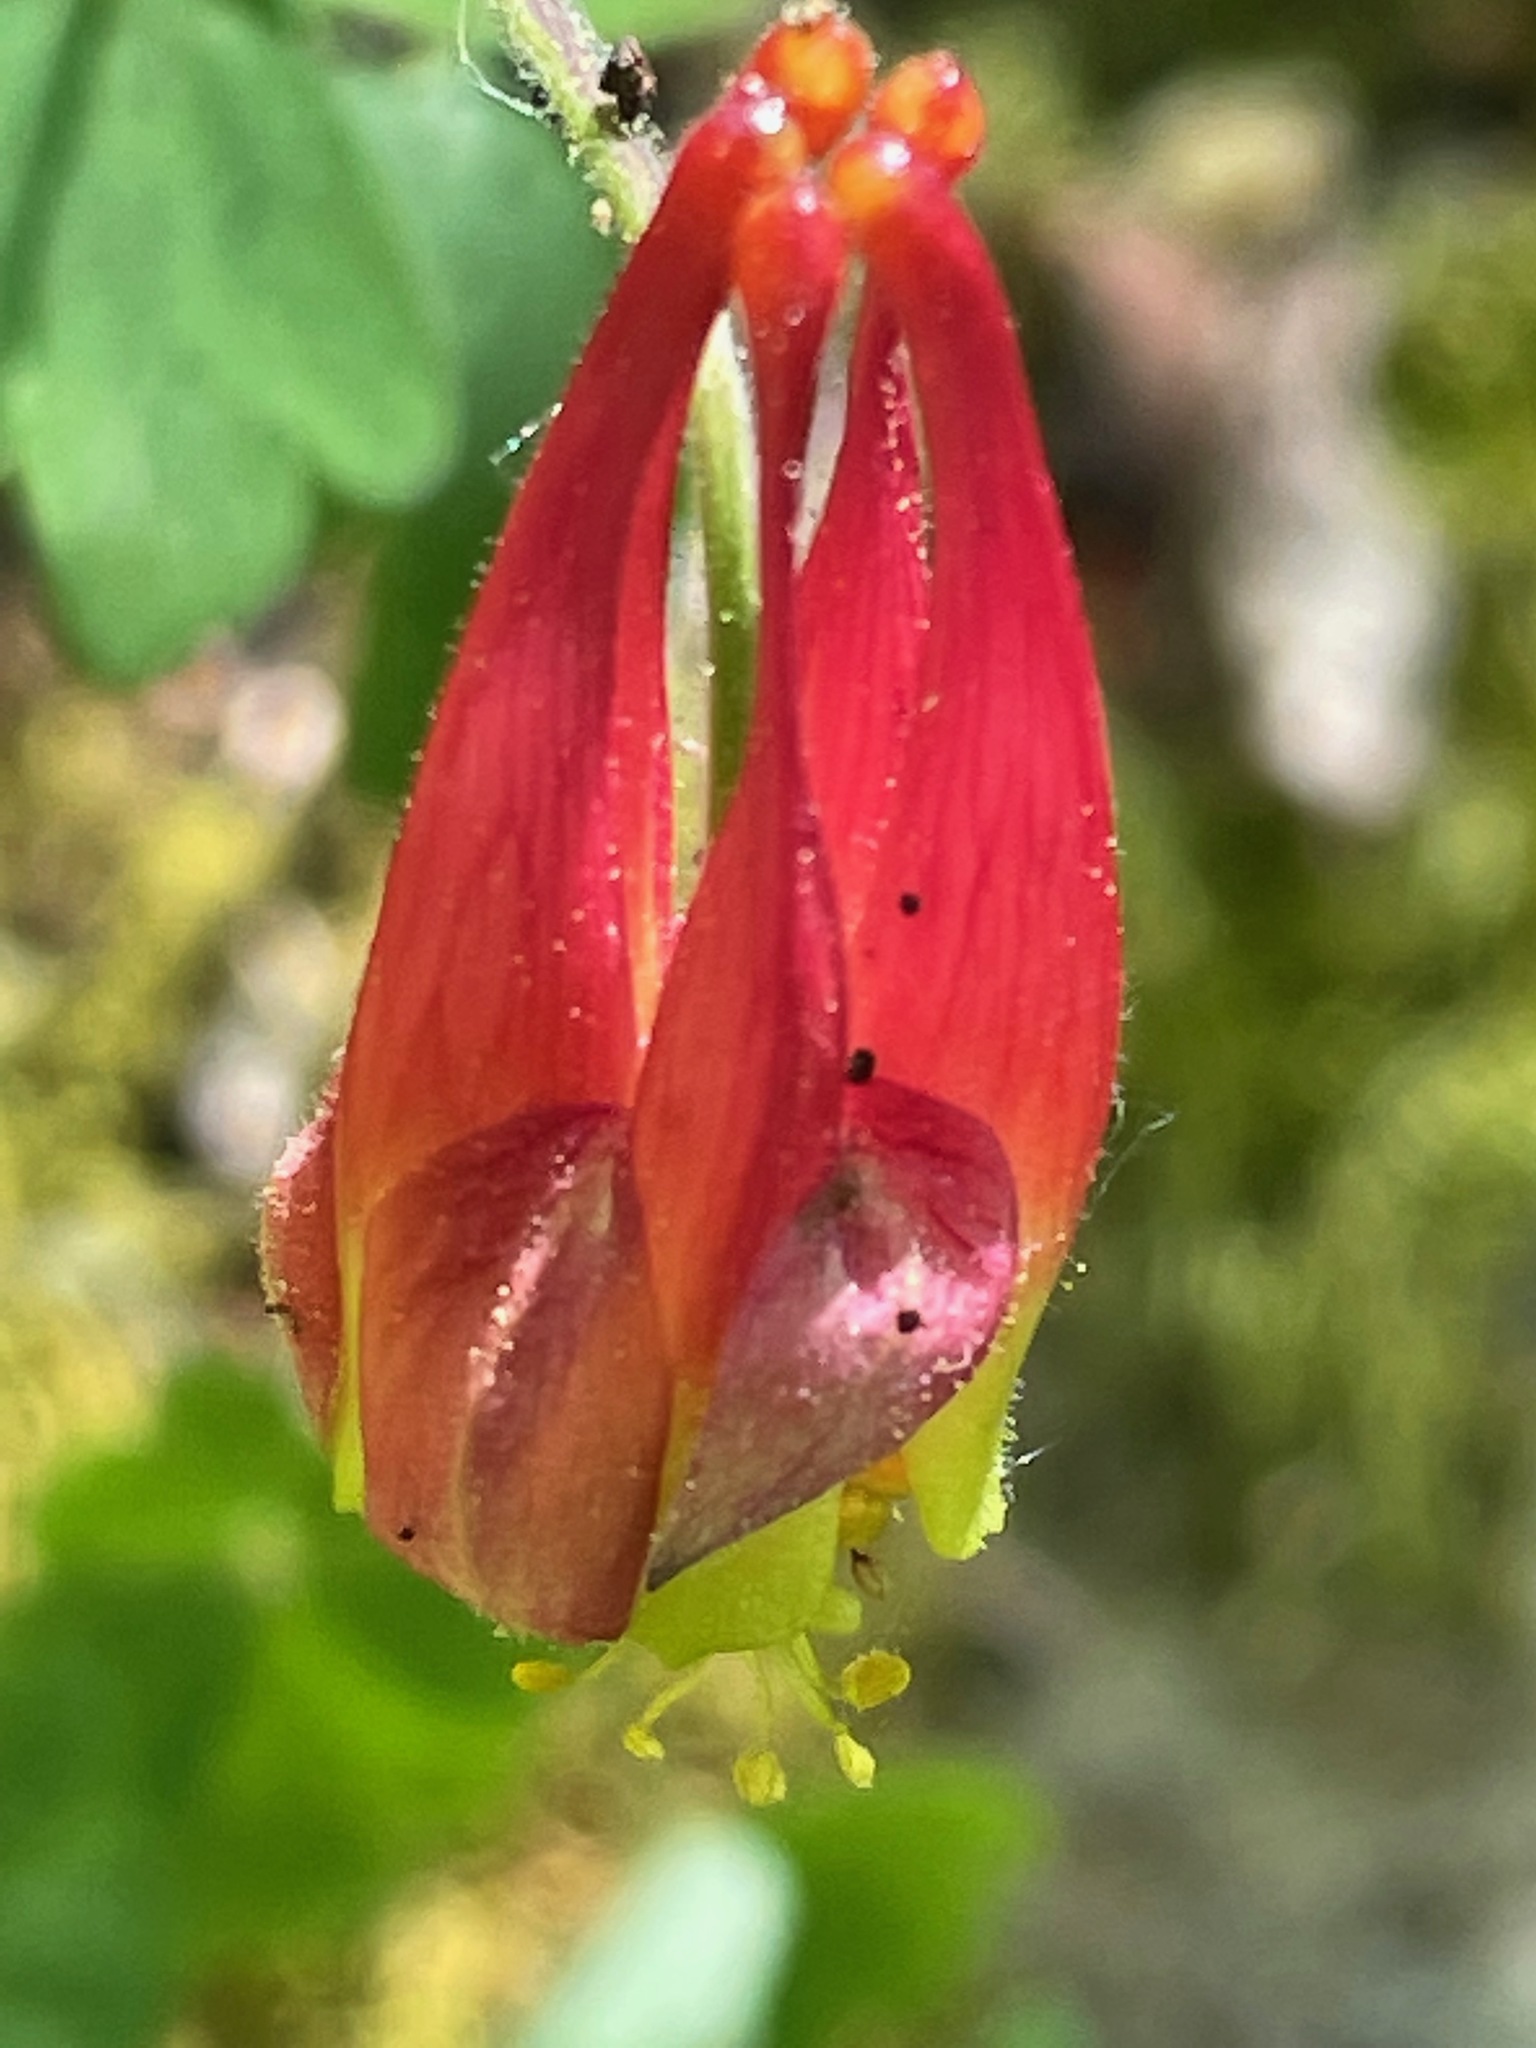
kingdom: Plantae
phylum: Tracheophyta
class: Magnoliopsida
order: Ranunculales
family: Ranunculaceae
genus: Aquilegia
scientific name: Aquilegia canadensis
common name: American columbine
